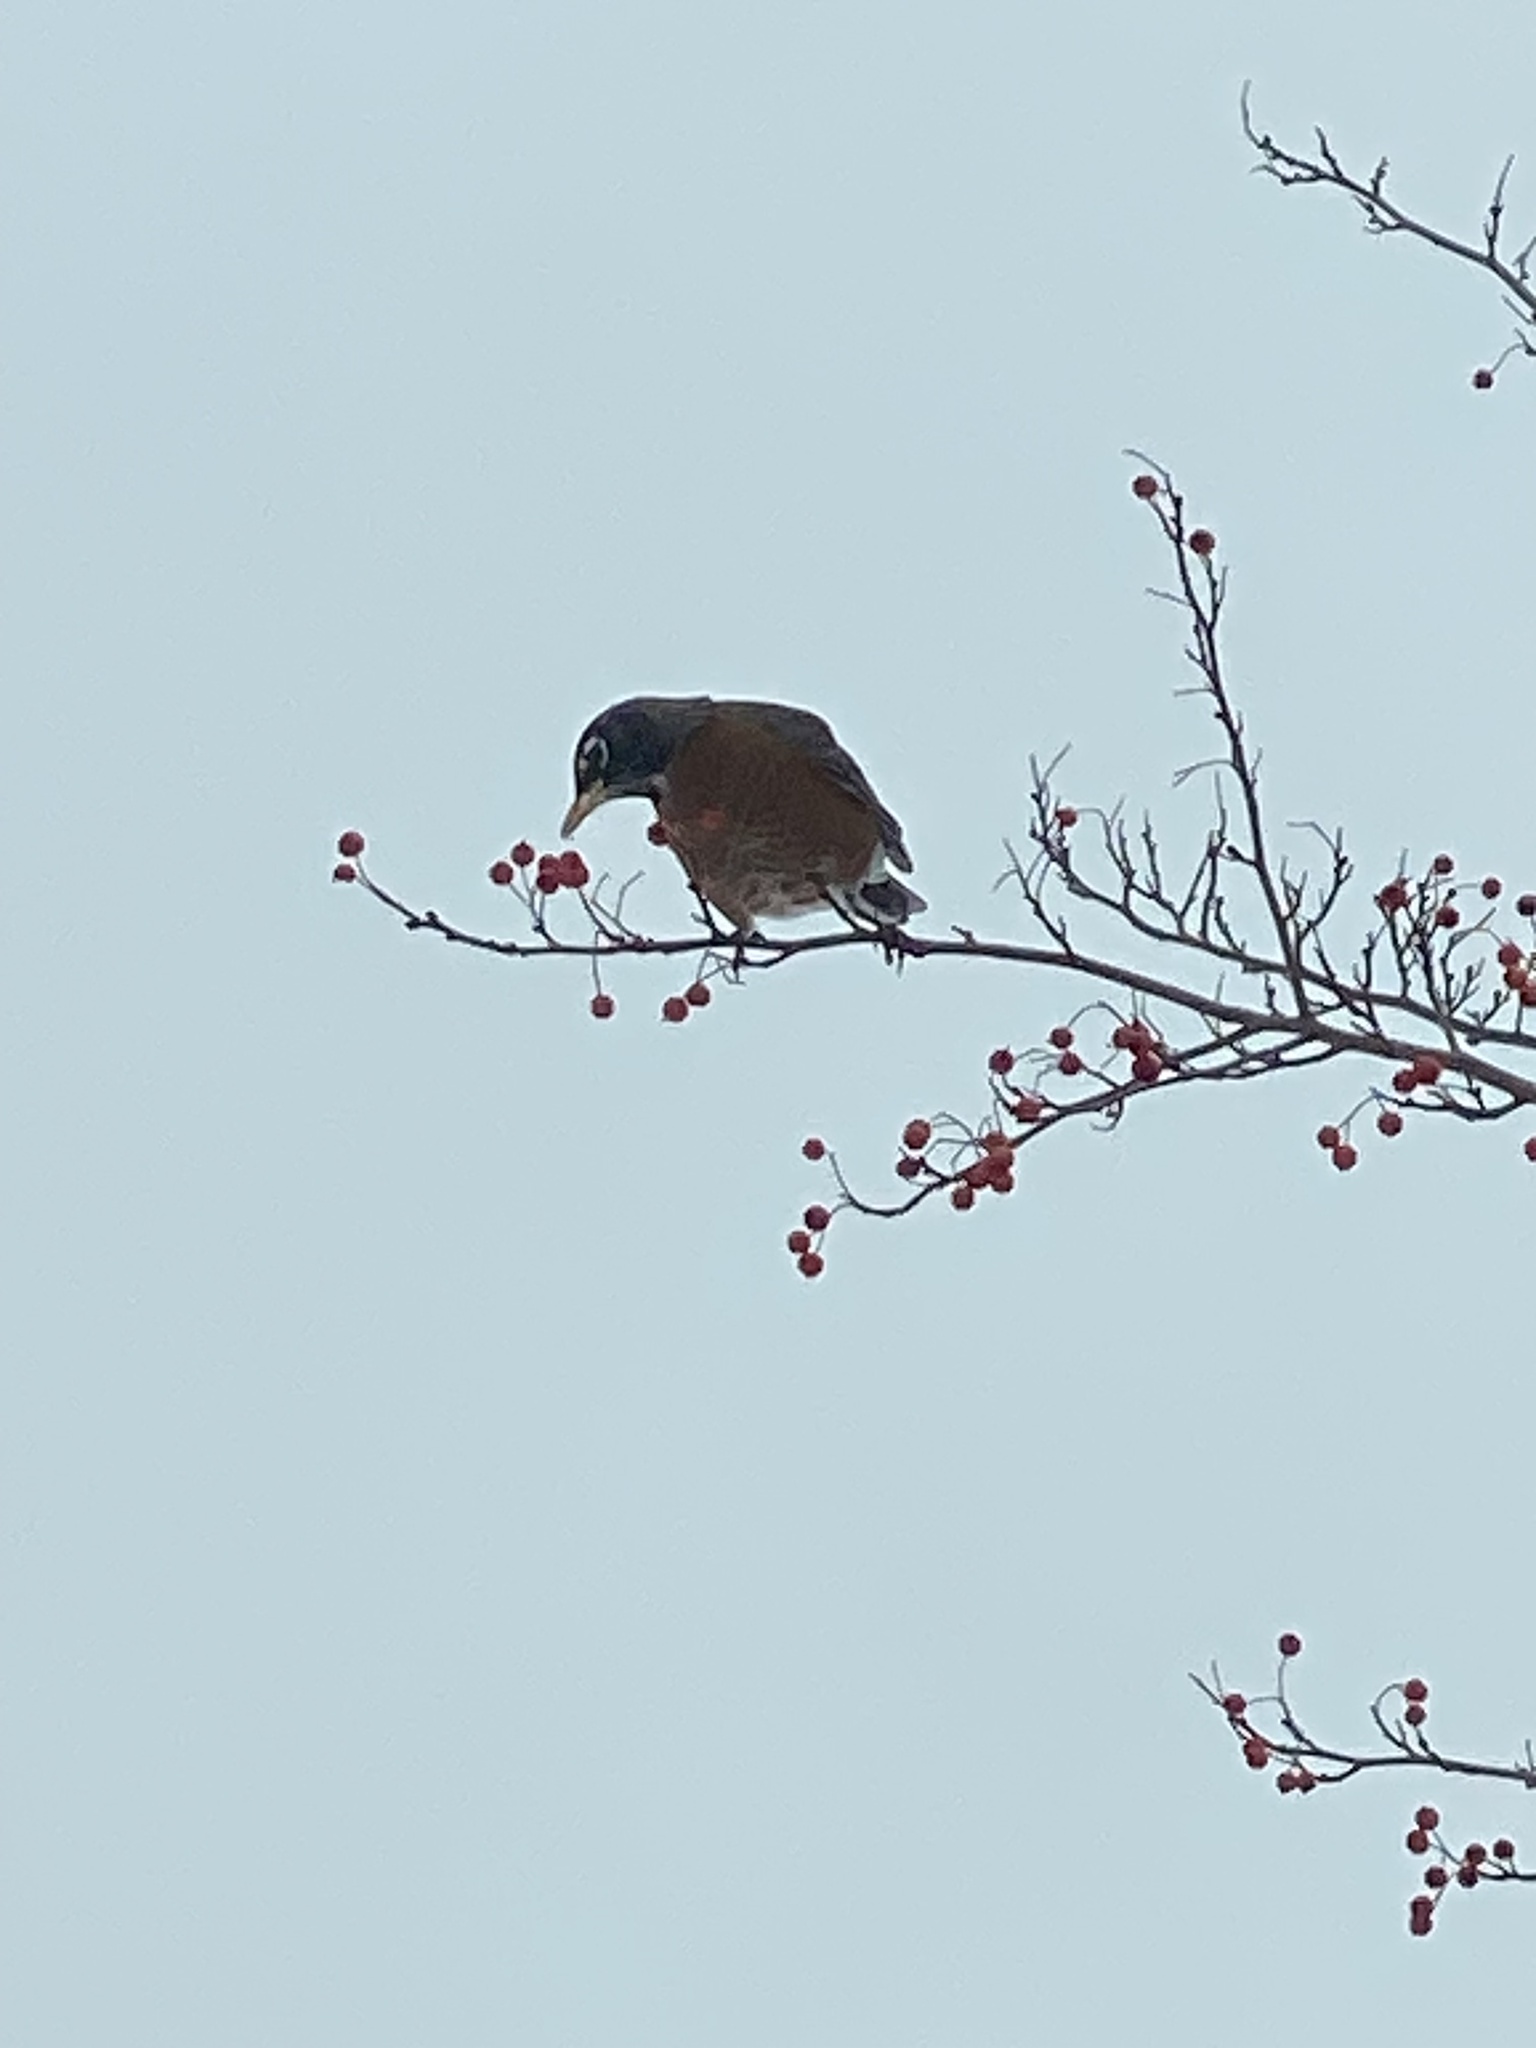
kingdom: Animalia
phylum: Chordata
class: Aves
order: Passeriformes
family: Turdidae
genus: Turdus
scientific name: Turdus migratorius
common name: American robin
